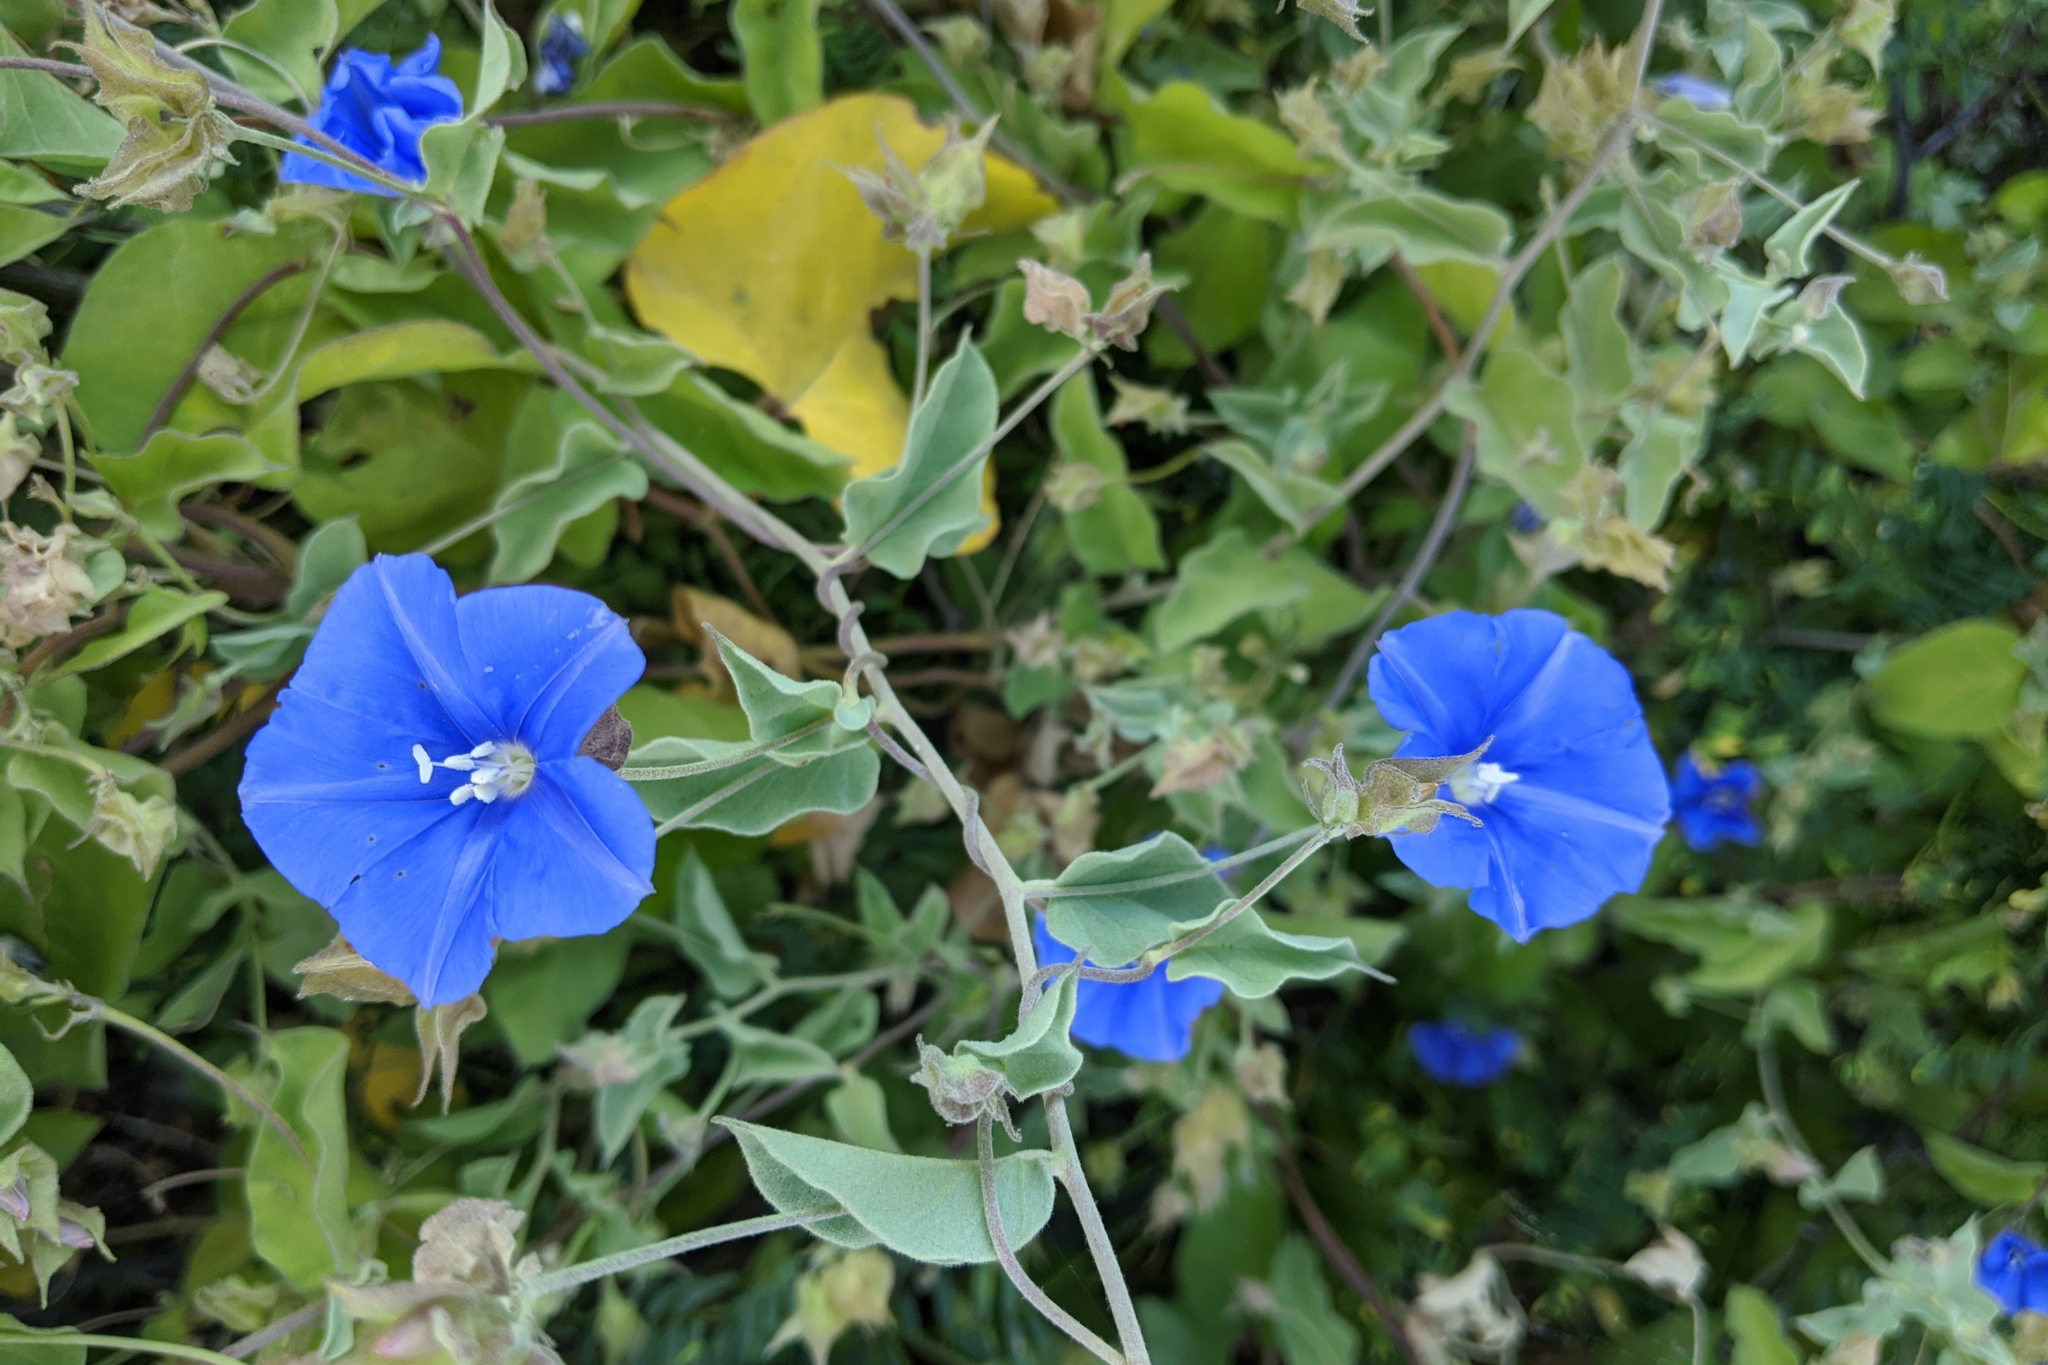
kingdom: Plantae
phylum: Tracheophyta
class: Magnoliopsida
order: Solanales
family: Convolvulaceae
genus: Jacquemontia
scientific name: Jacquemontia abutiloides
